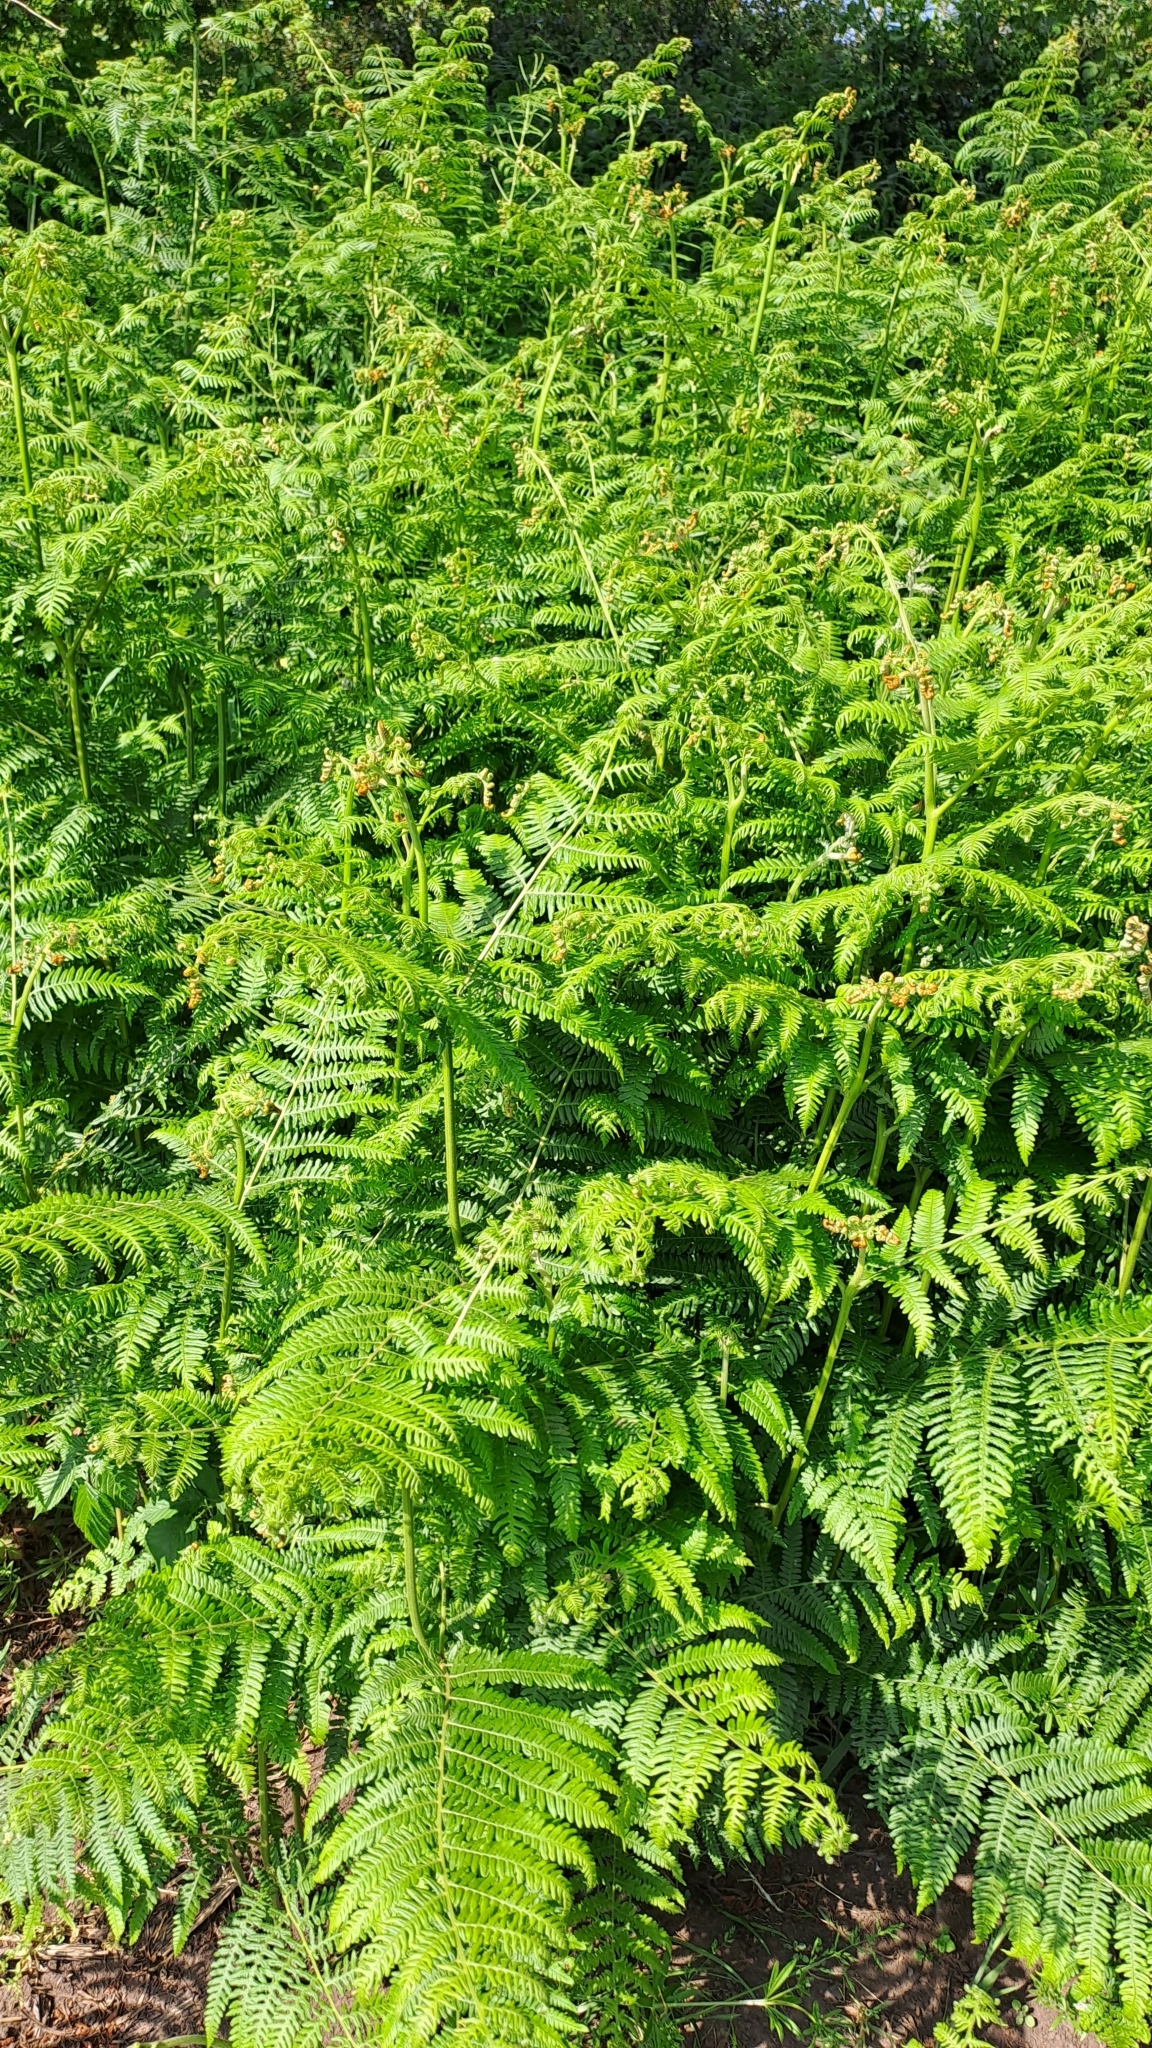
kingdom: Plantae
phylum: Tracheophyta
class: Polypodiopsida
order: Polypodiales
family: Dennstaedtiaceae
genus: Pteridium
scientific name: Pteridium aquilinum
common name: Bracken
